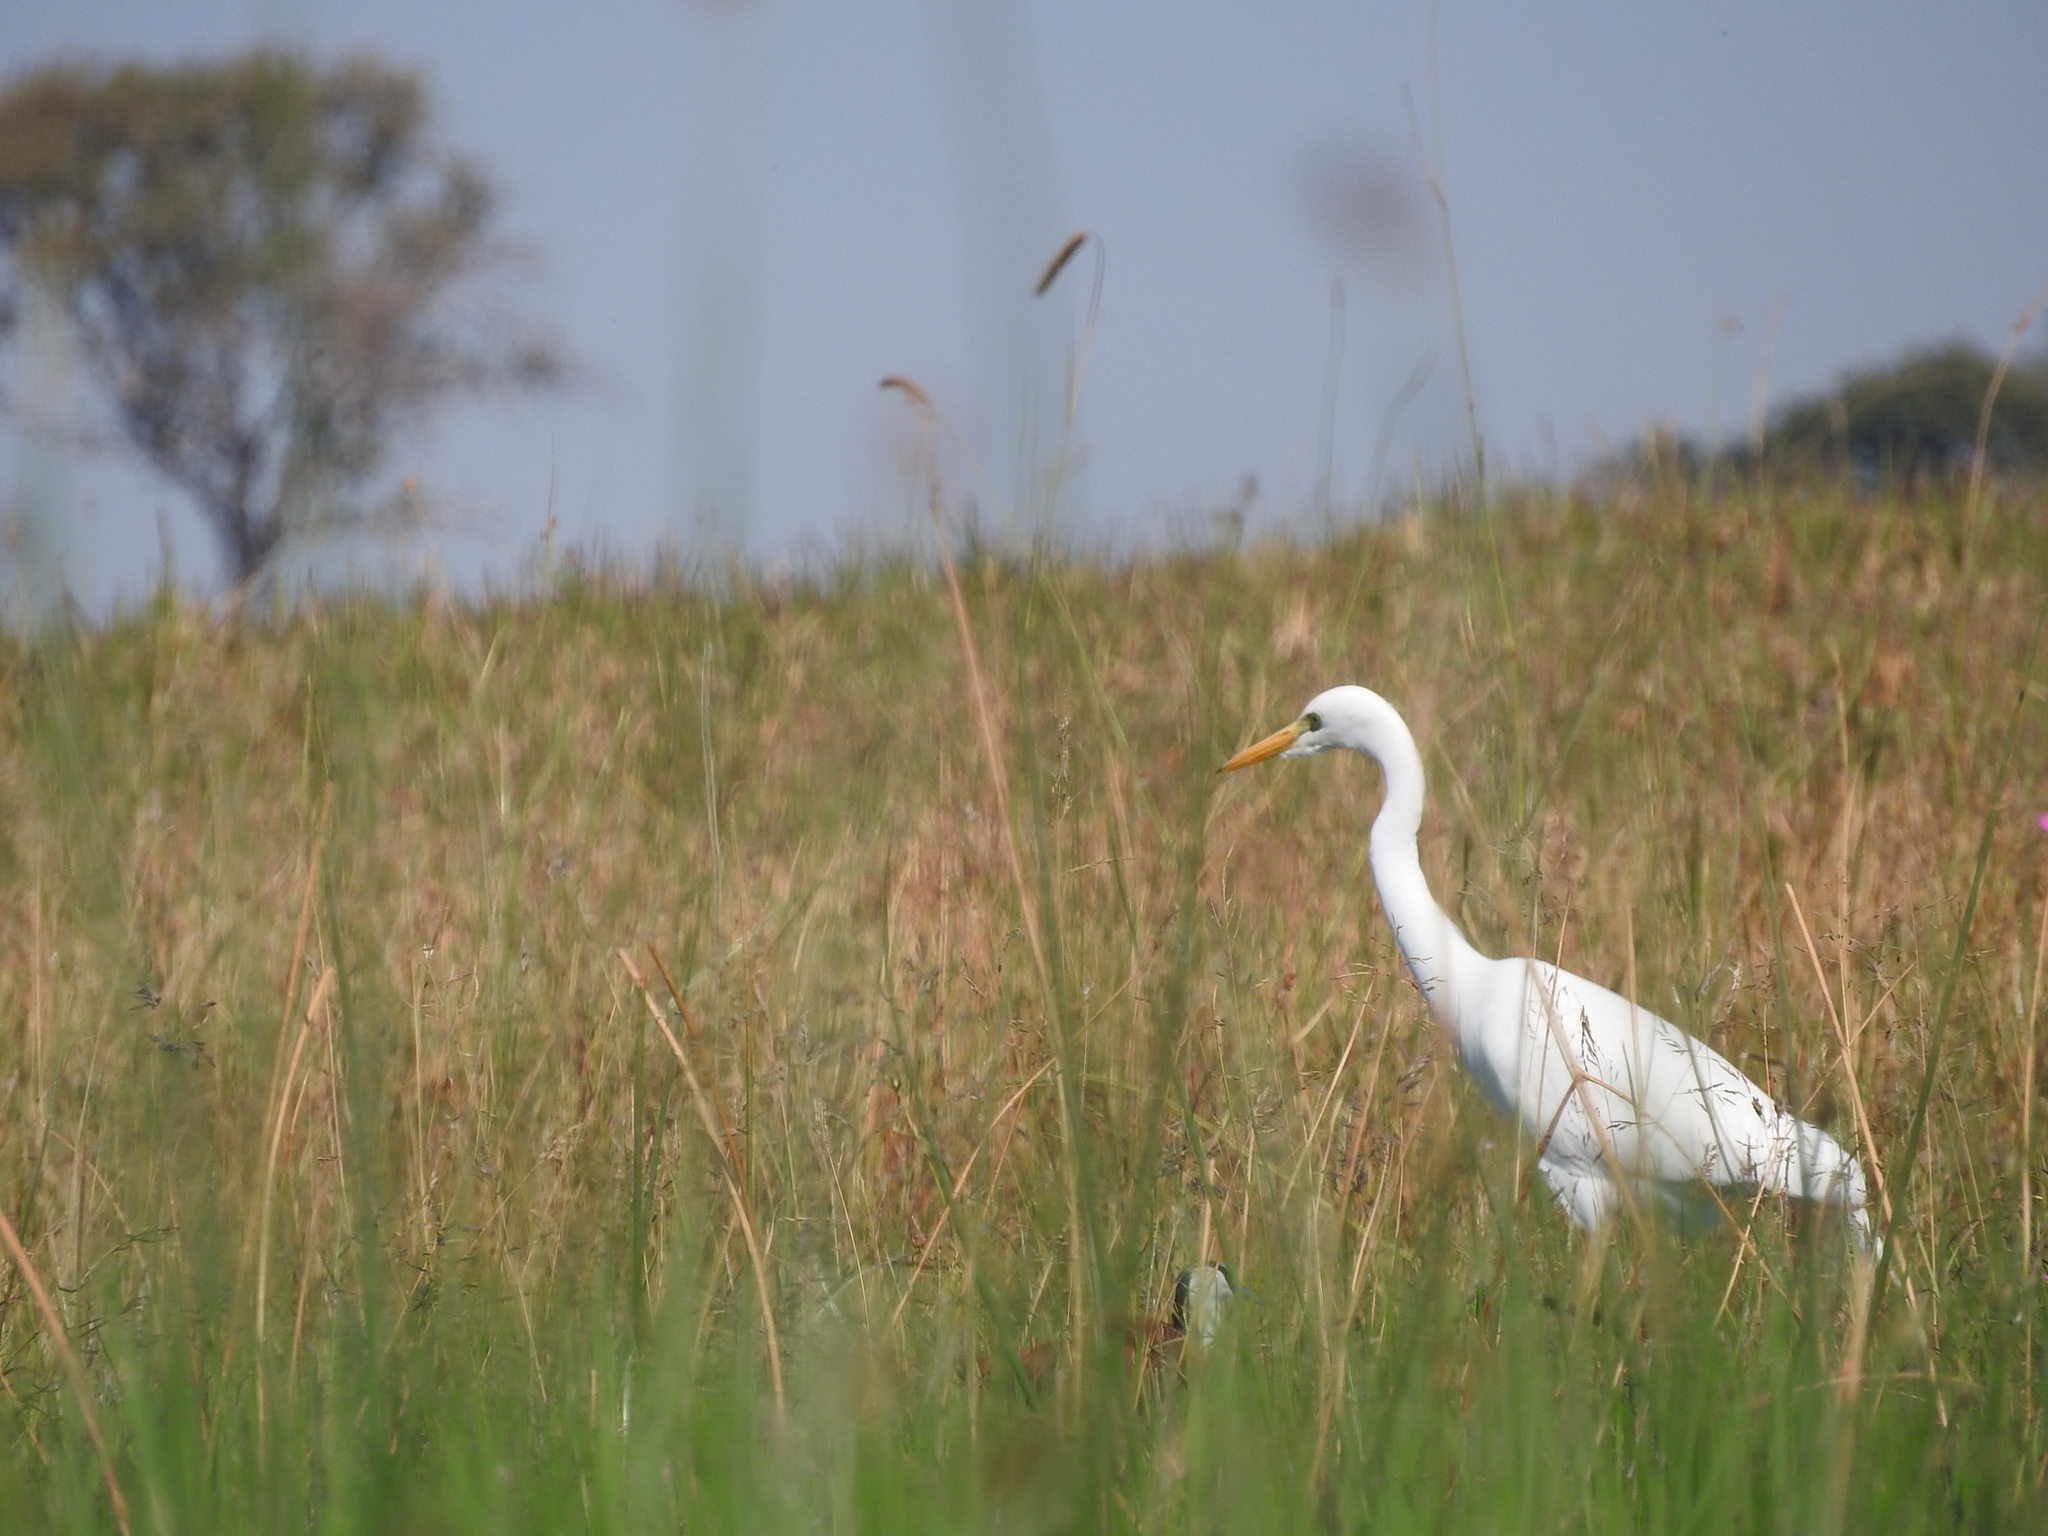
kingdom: Animalia
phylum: Chordata
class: Aves
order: Pelecaniformes
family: Ardeidae
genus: Egretta
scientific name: Egretta intermedia
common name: Intermediate egret
